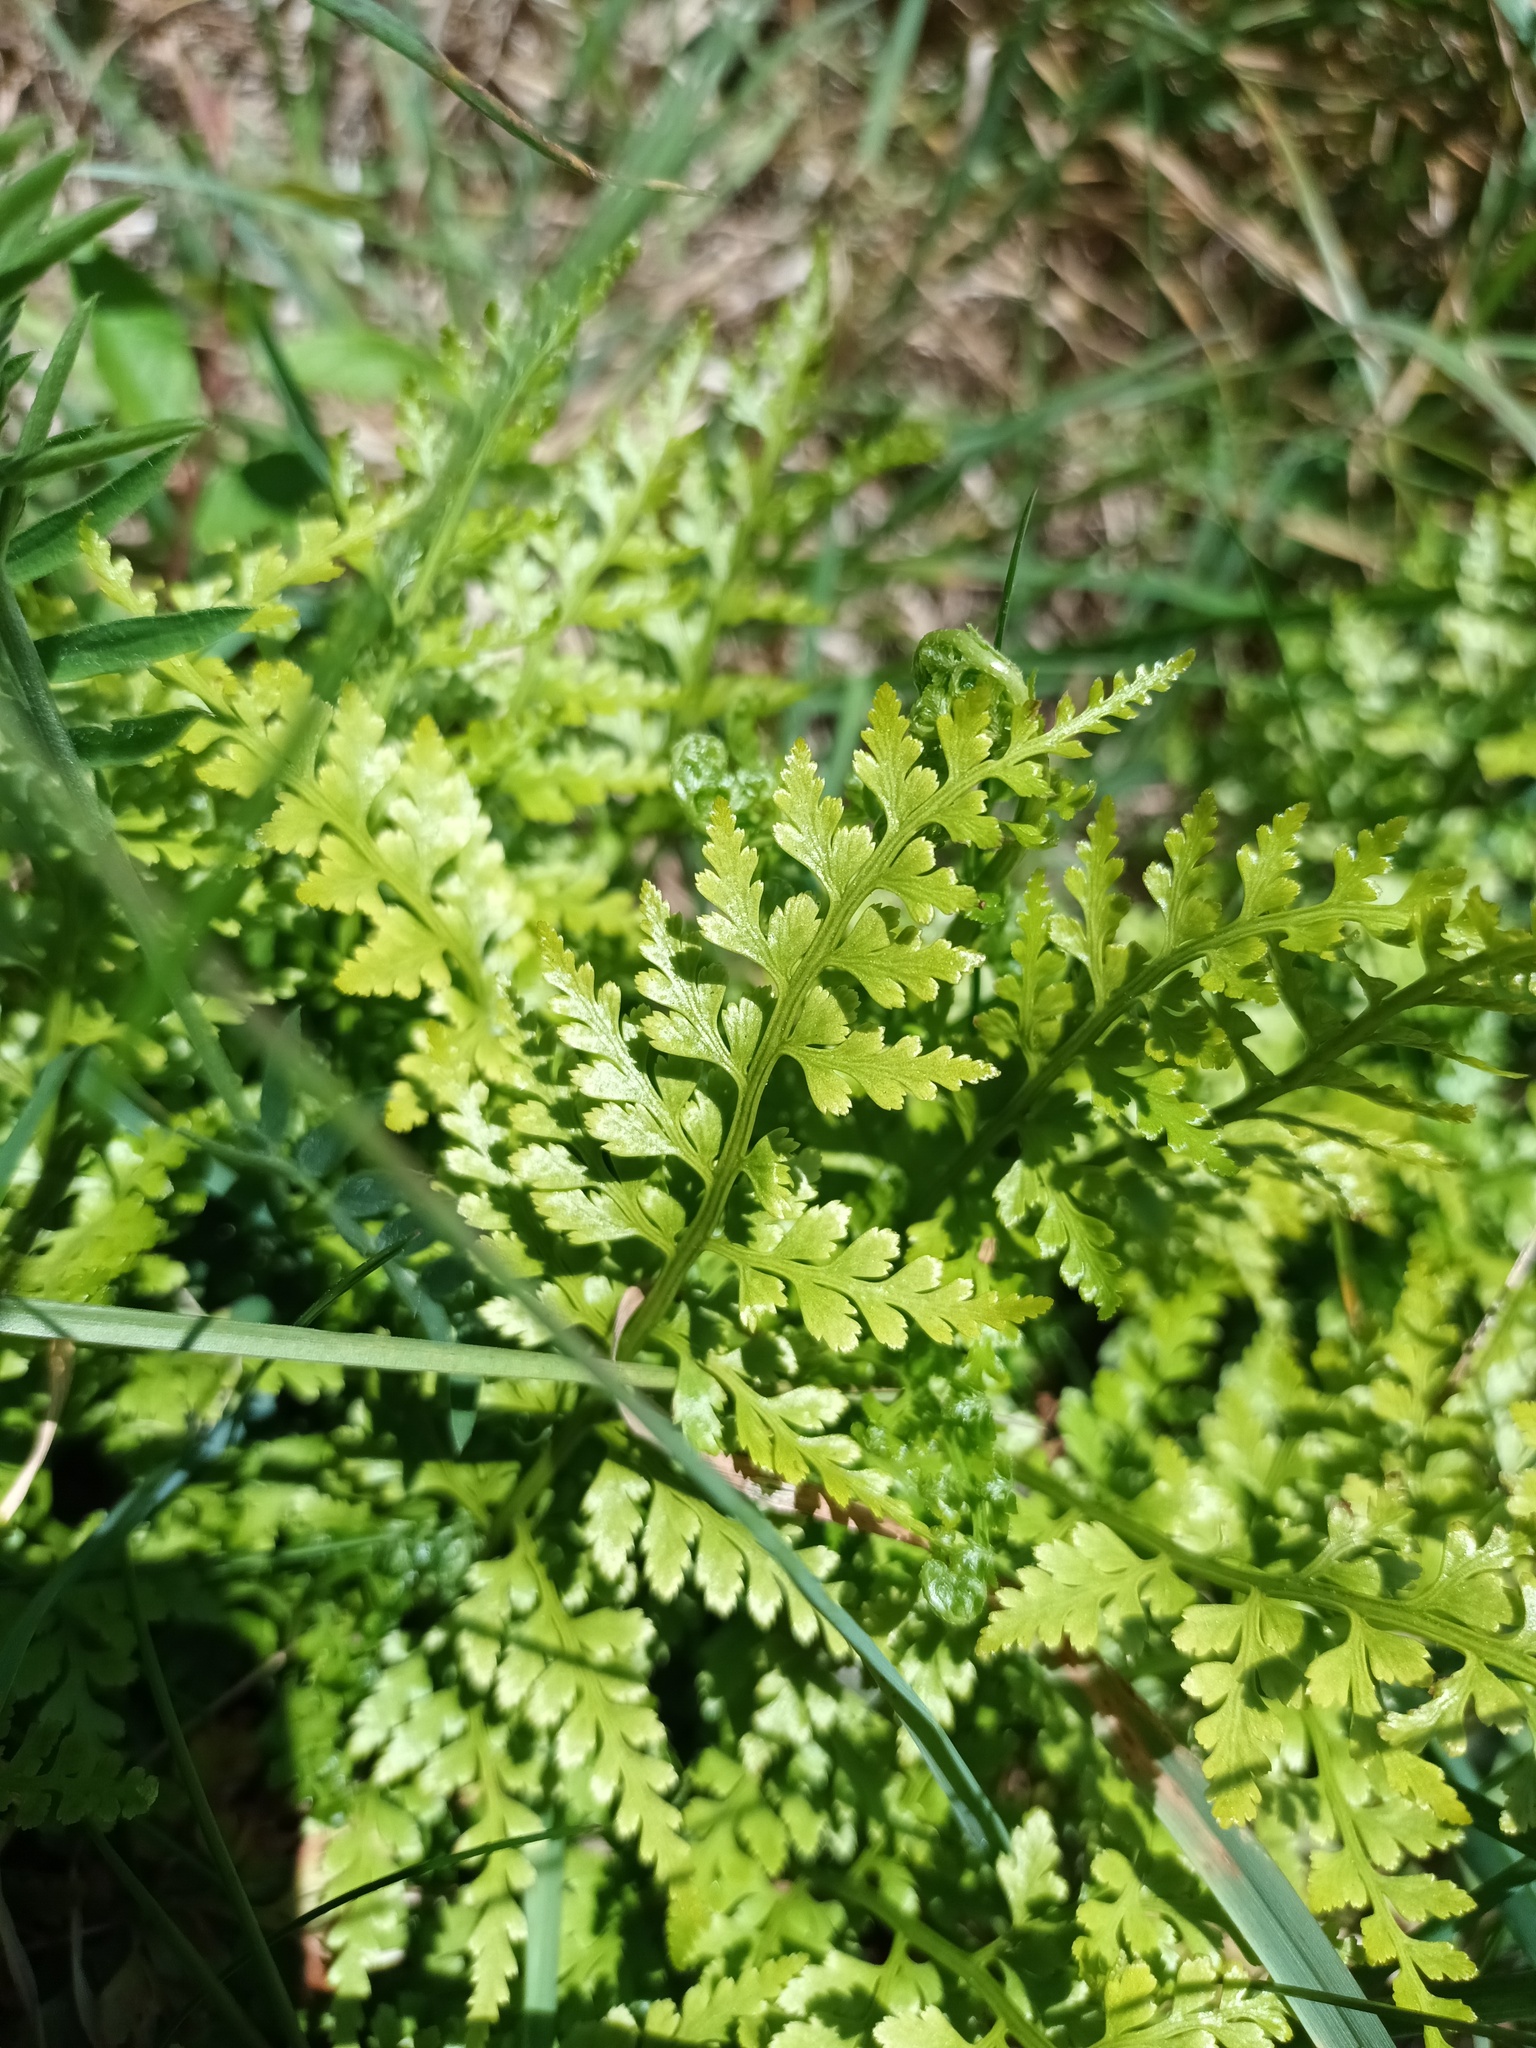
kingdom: Plantae
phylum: Tracheophyta
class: Polypodiopsida
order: Polypodiales
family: Aspleniaceae
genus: Asplenium
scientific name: Asplenium adiantum-nigrum
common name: Black spleenwort
